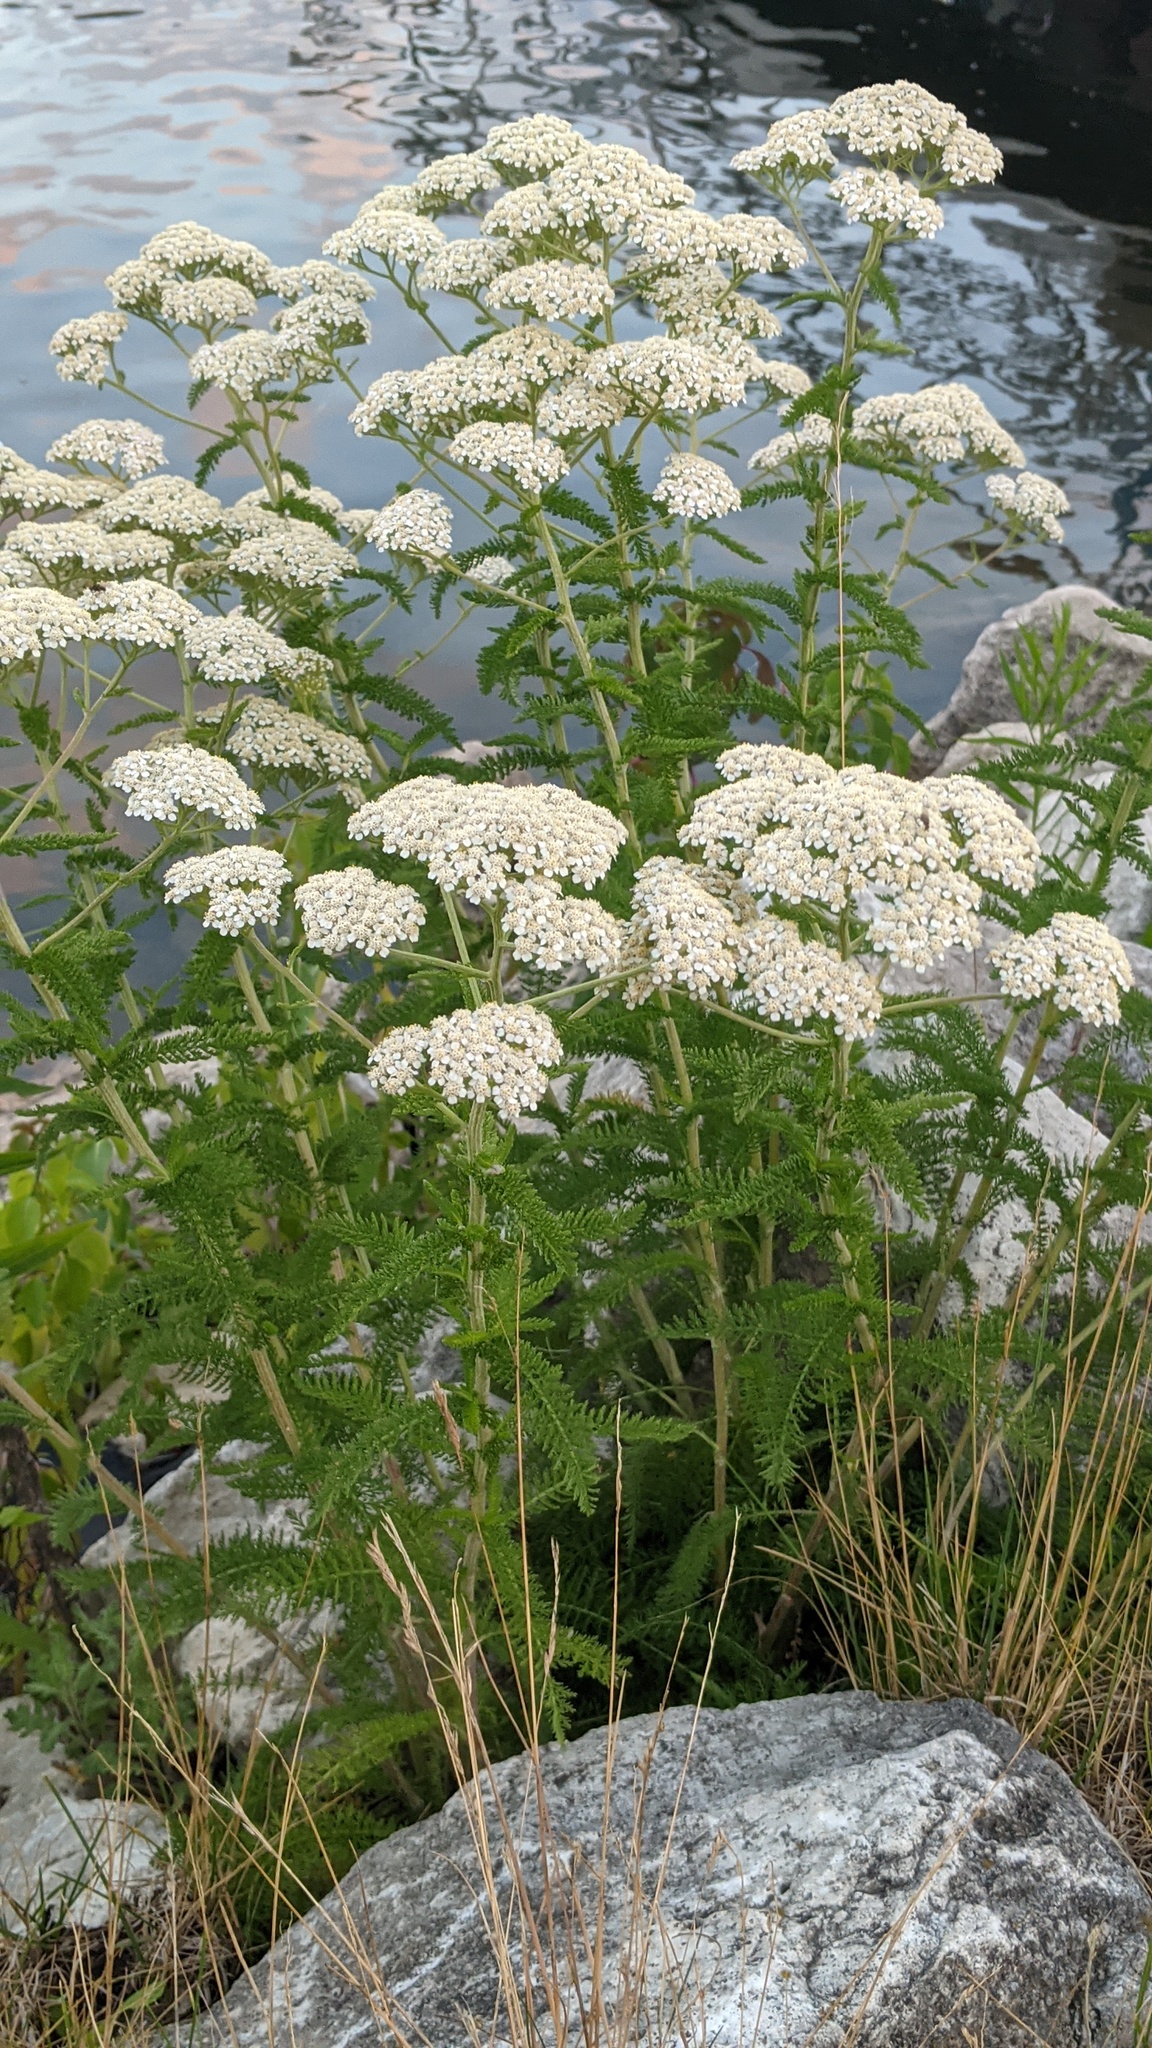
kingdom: Plantae
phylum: Tracheophyta
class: Magnoliopsida
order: Asterales
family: Asteraceae
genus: Achillea
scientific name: Achillea millefolium
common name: Yarrow
